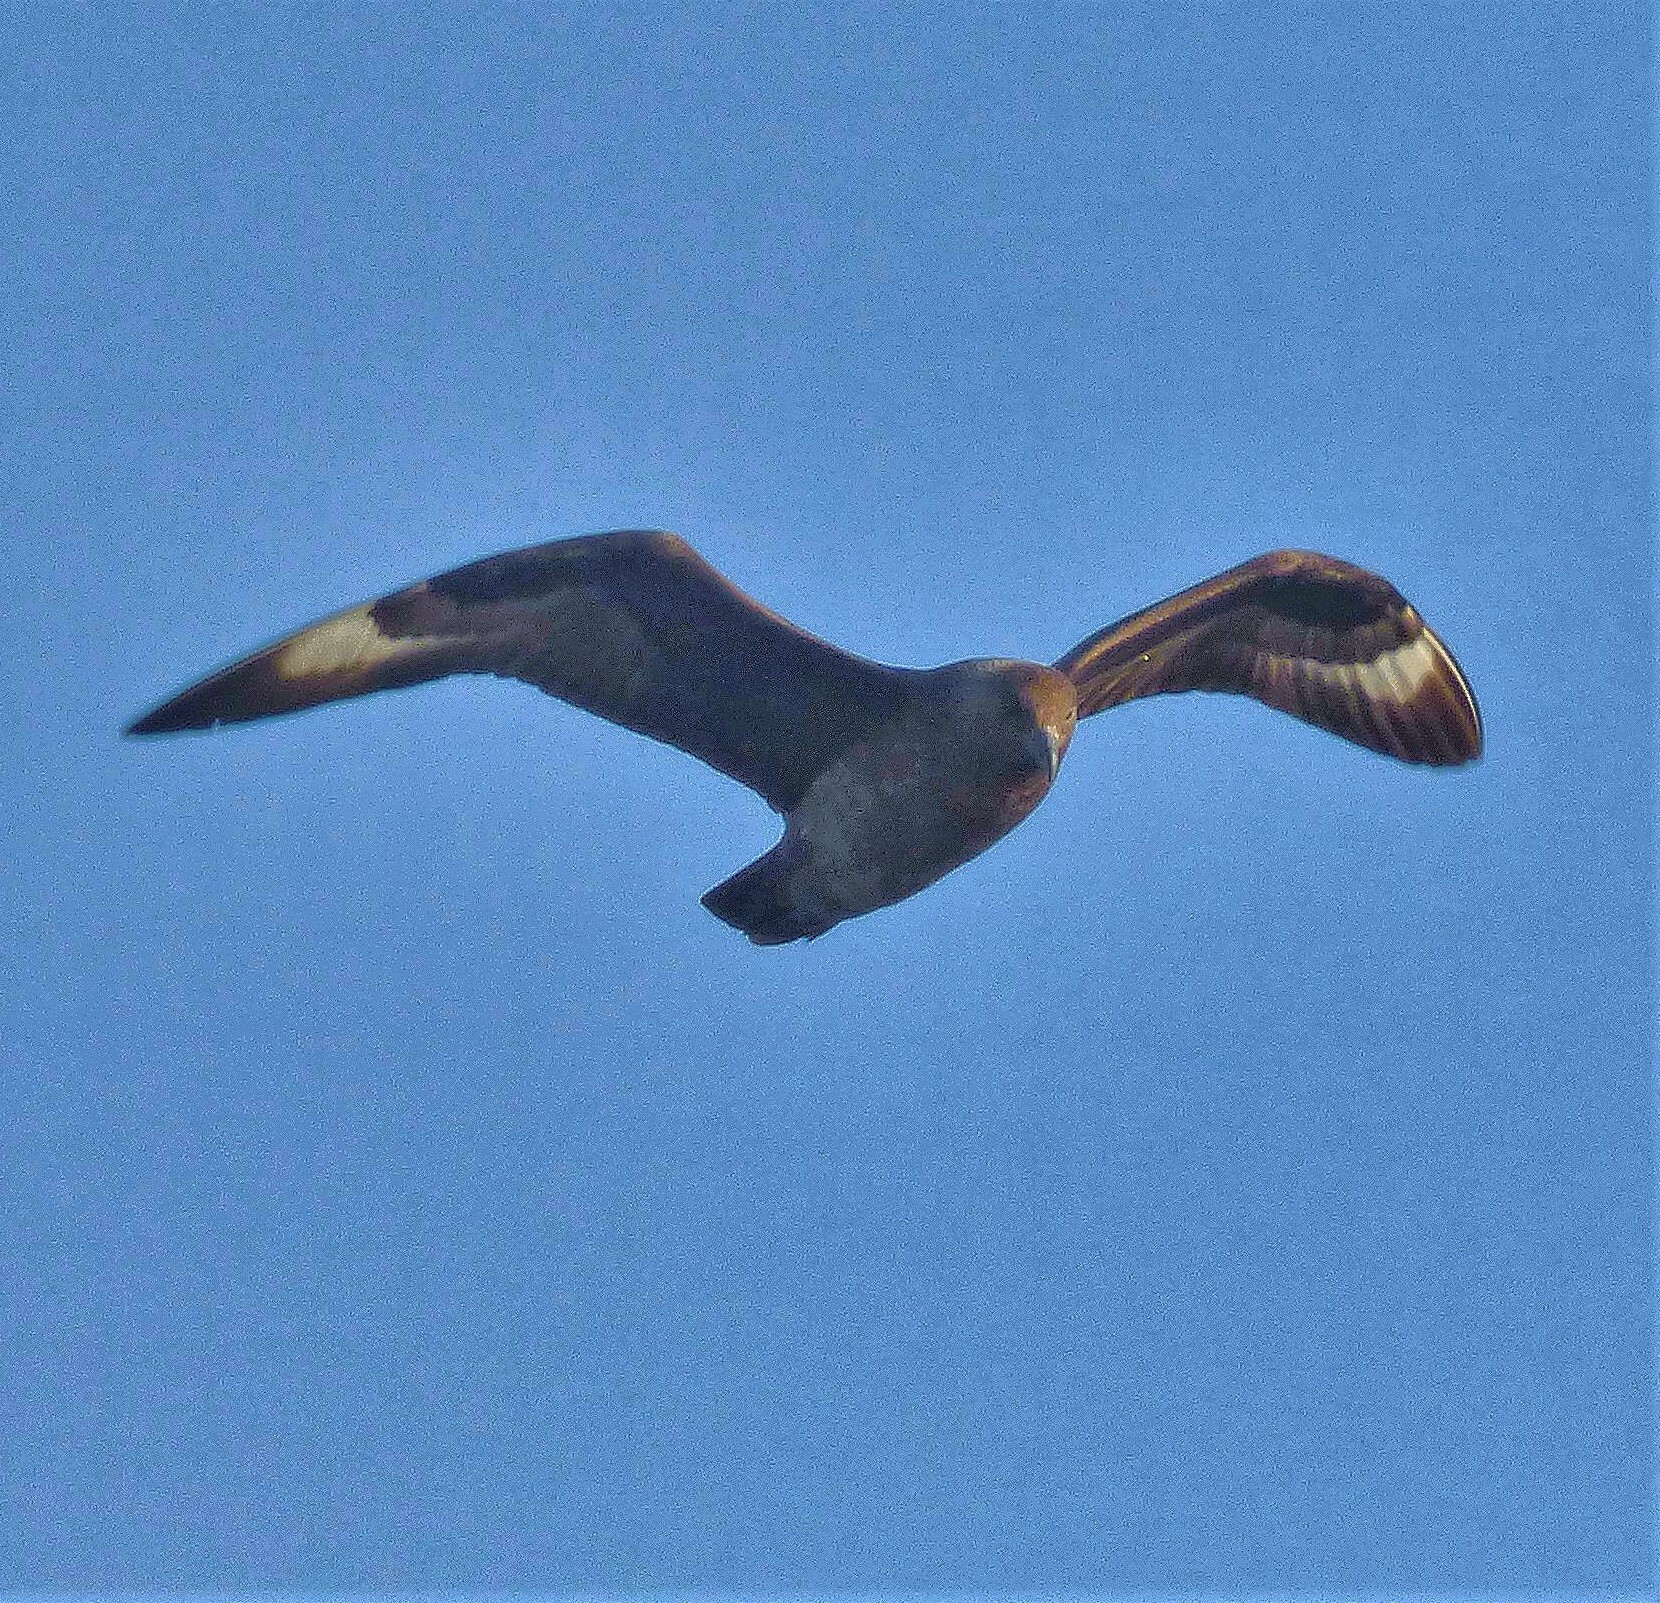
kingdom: Animalia
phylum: Chordata
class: Aves
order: Charadriiformes
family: Stercorariidae
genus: Stercorarius
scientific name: Stercorarius maccormicki
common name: South polar skua
